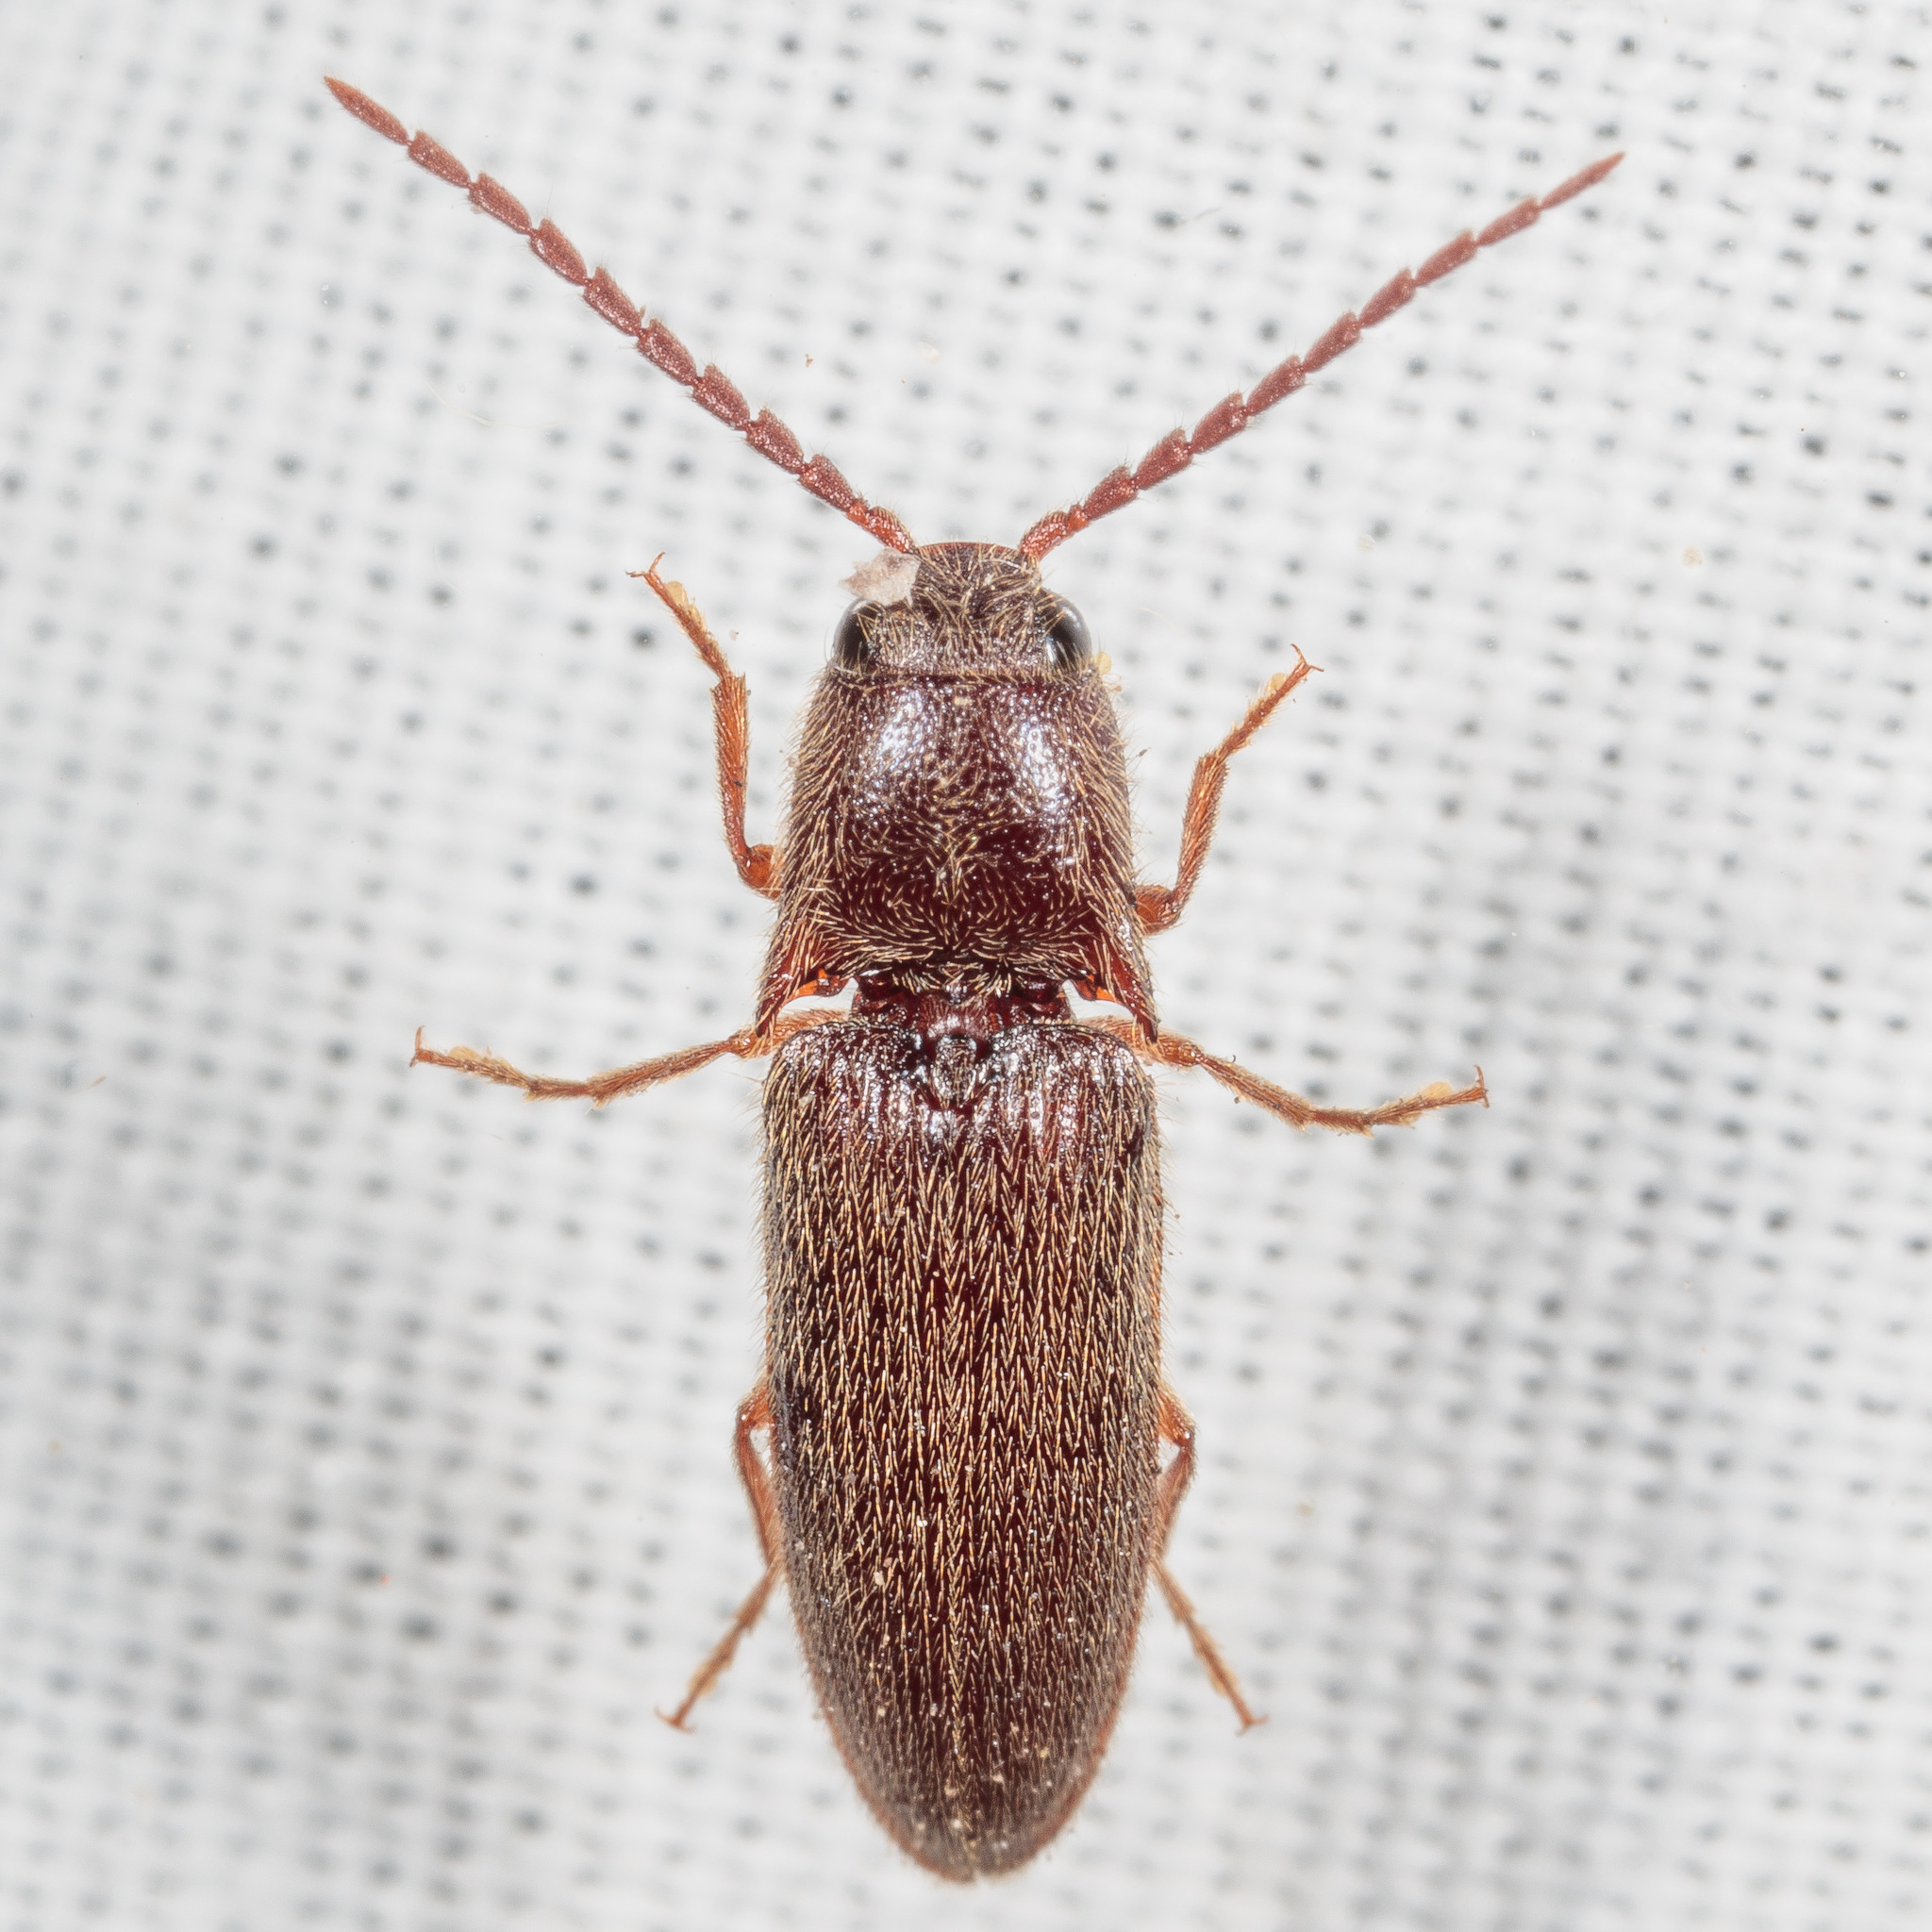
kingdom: Animalia
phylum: Arthropoda
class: Insecta
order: Coleoptera
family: Elateridae
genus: Dipropus
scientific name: Dipropus
